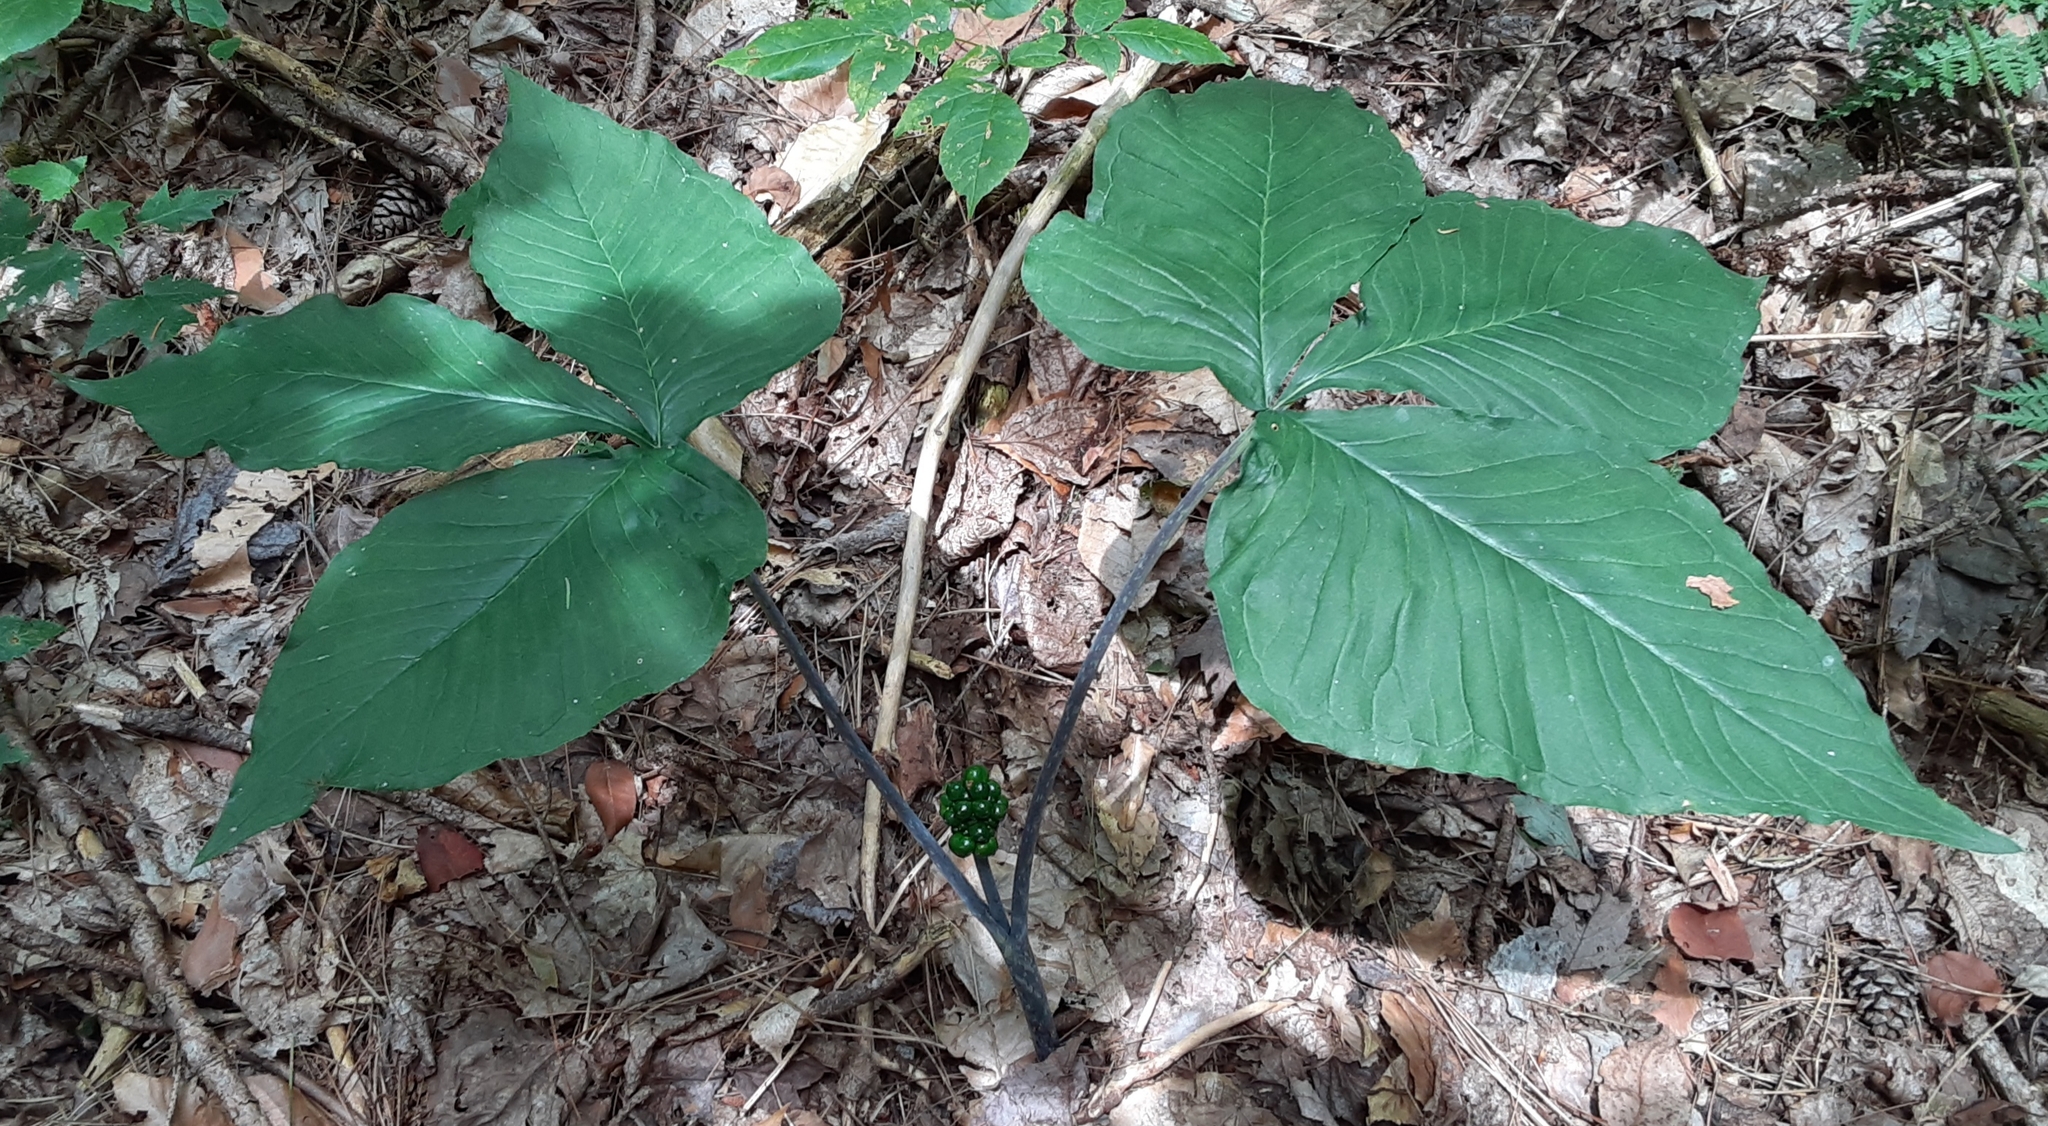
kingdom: Plantae
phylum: Tracheophyta
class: Liliopsida
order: Alismatales
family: Araceae
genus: Arisaema
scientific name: Arisaema triphyllum
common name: Jack-in-the-pulpit
